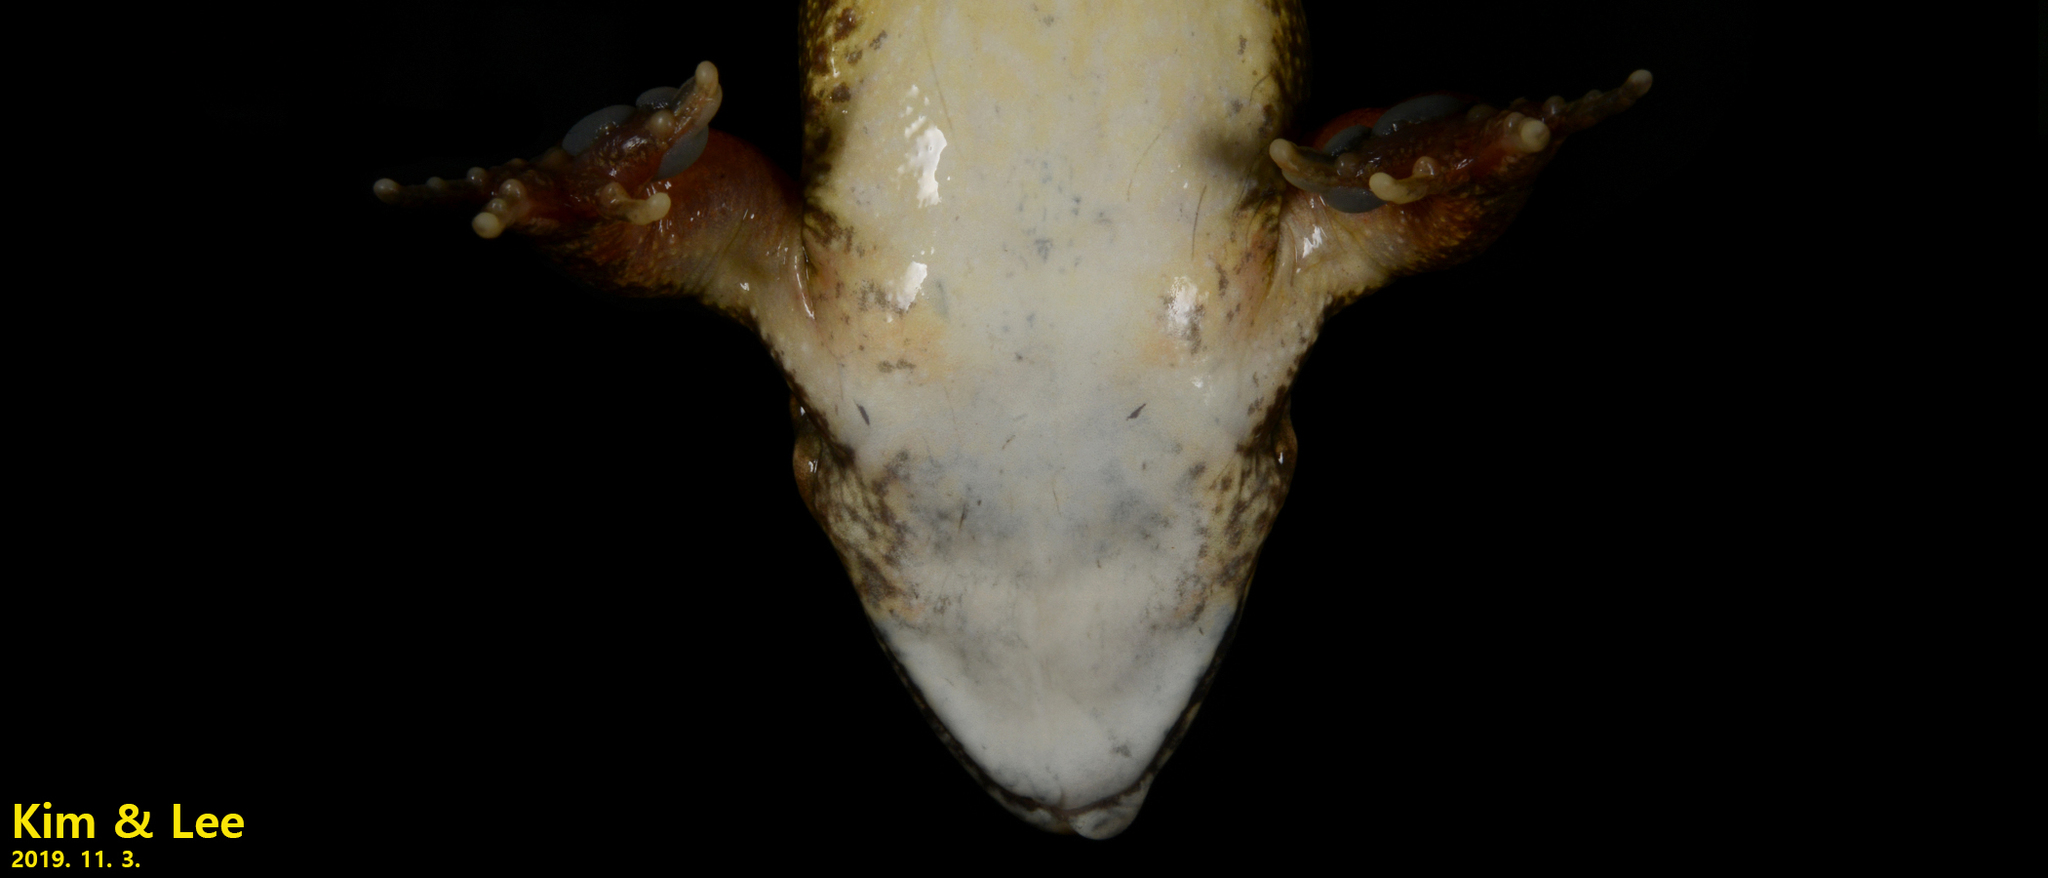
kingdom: Animalia
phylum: Chordata
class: Amphibia
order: Anura
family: Ranidae
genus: Rana
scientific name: Rana uenoi
